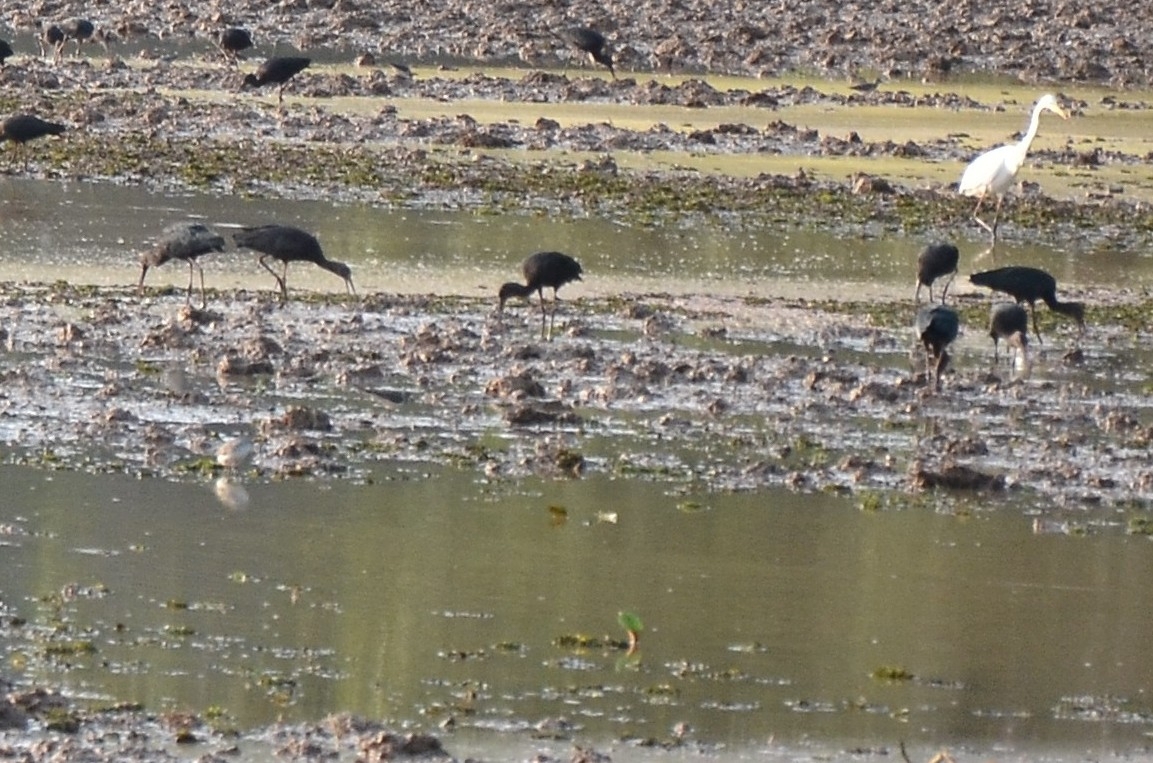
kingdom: Animalia
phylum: Chordata
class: Aves
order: Pelecaniformes
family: Threskiornithidae
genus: Plegadis
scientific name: Plegadis falcinellus
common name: Glossy ibis
